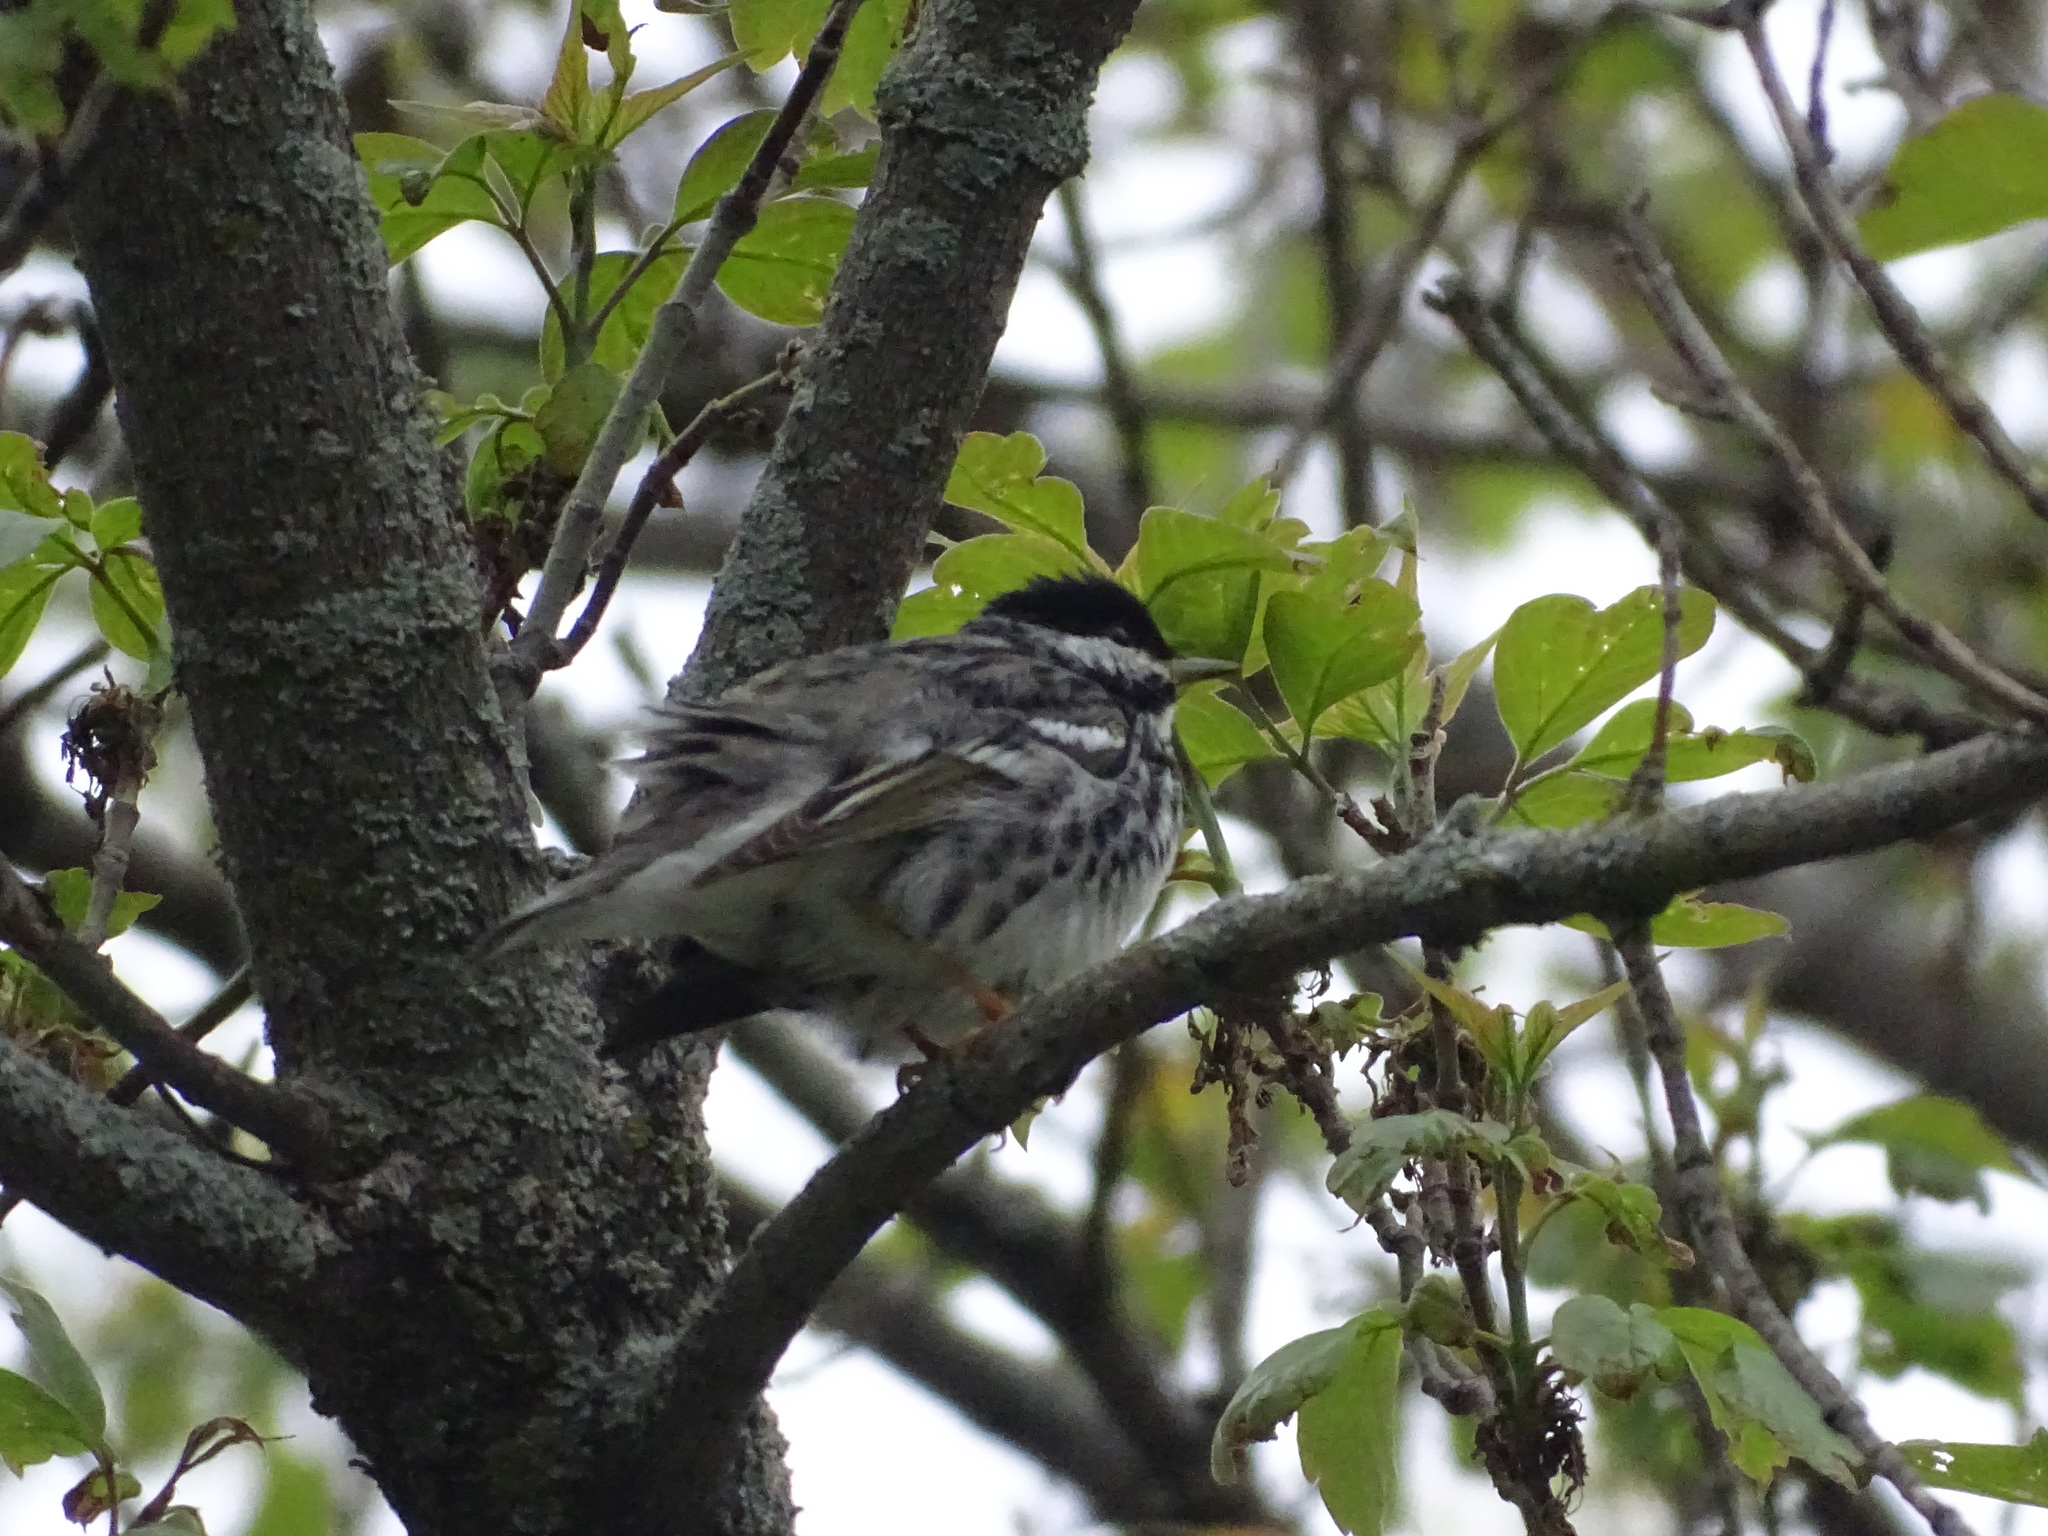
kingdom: Animalia
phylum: Chordata
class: Aves
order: Passeriformes
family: Parulidae
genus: Setophaga
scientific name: Setophaga striata
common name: Blackpoll warbler
